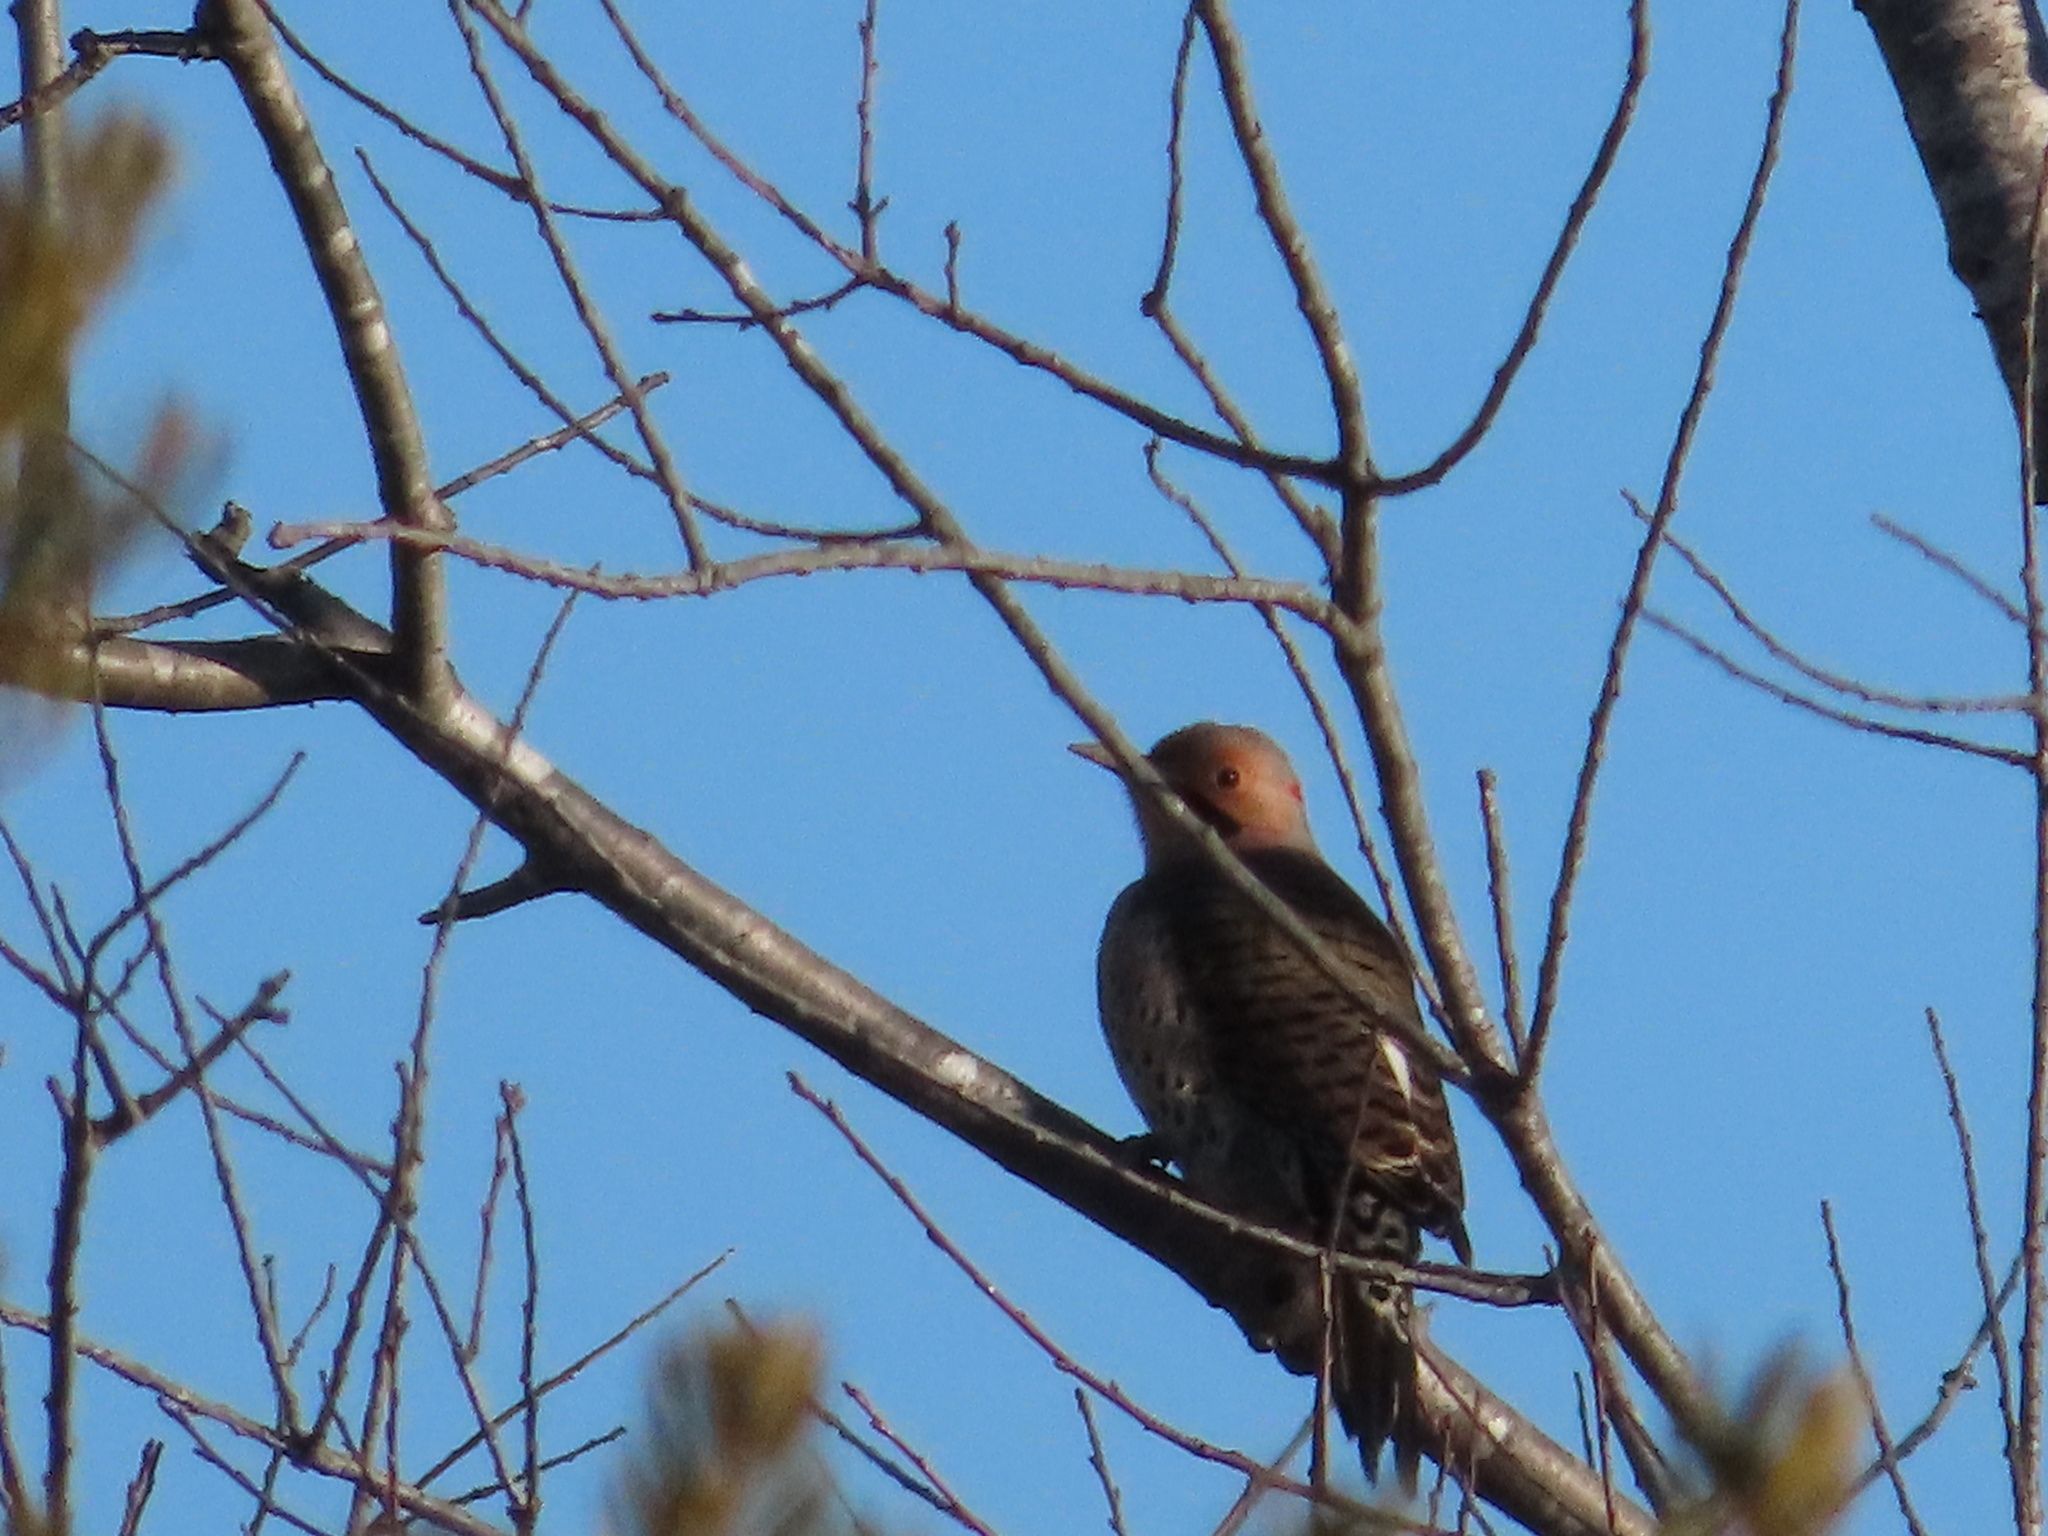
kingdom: Animalia
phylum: Chordata
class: Aves
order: Piciformes
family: Picidae
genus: Colaptes
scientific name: Colaptes auratus
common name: Northern flicker
